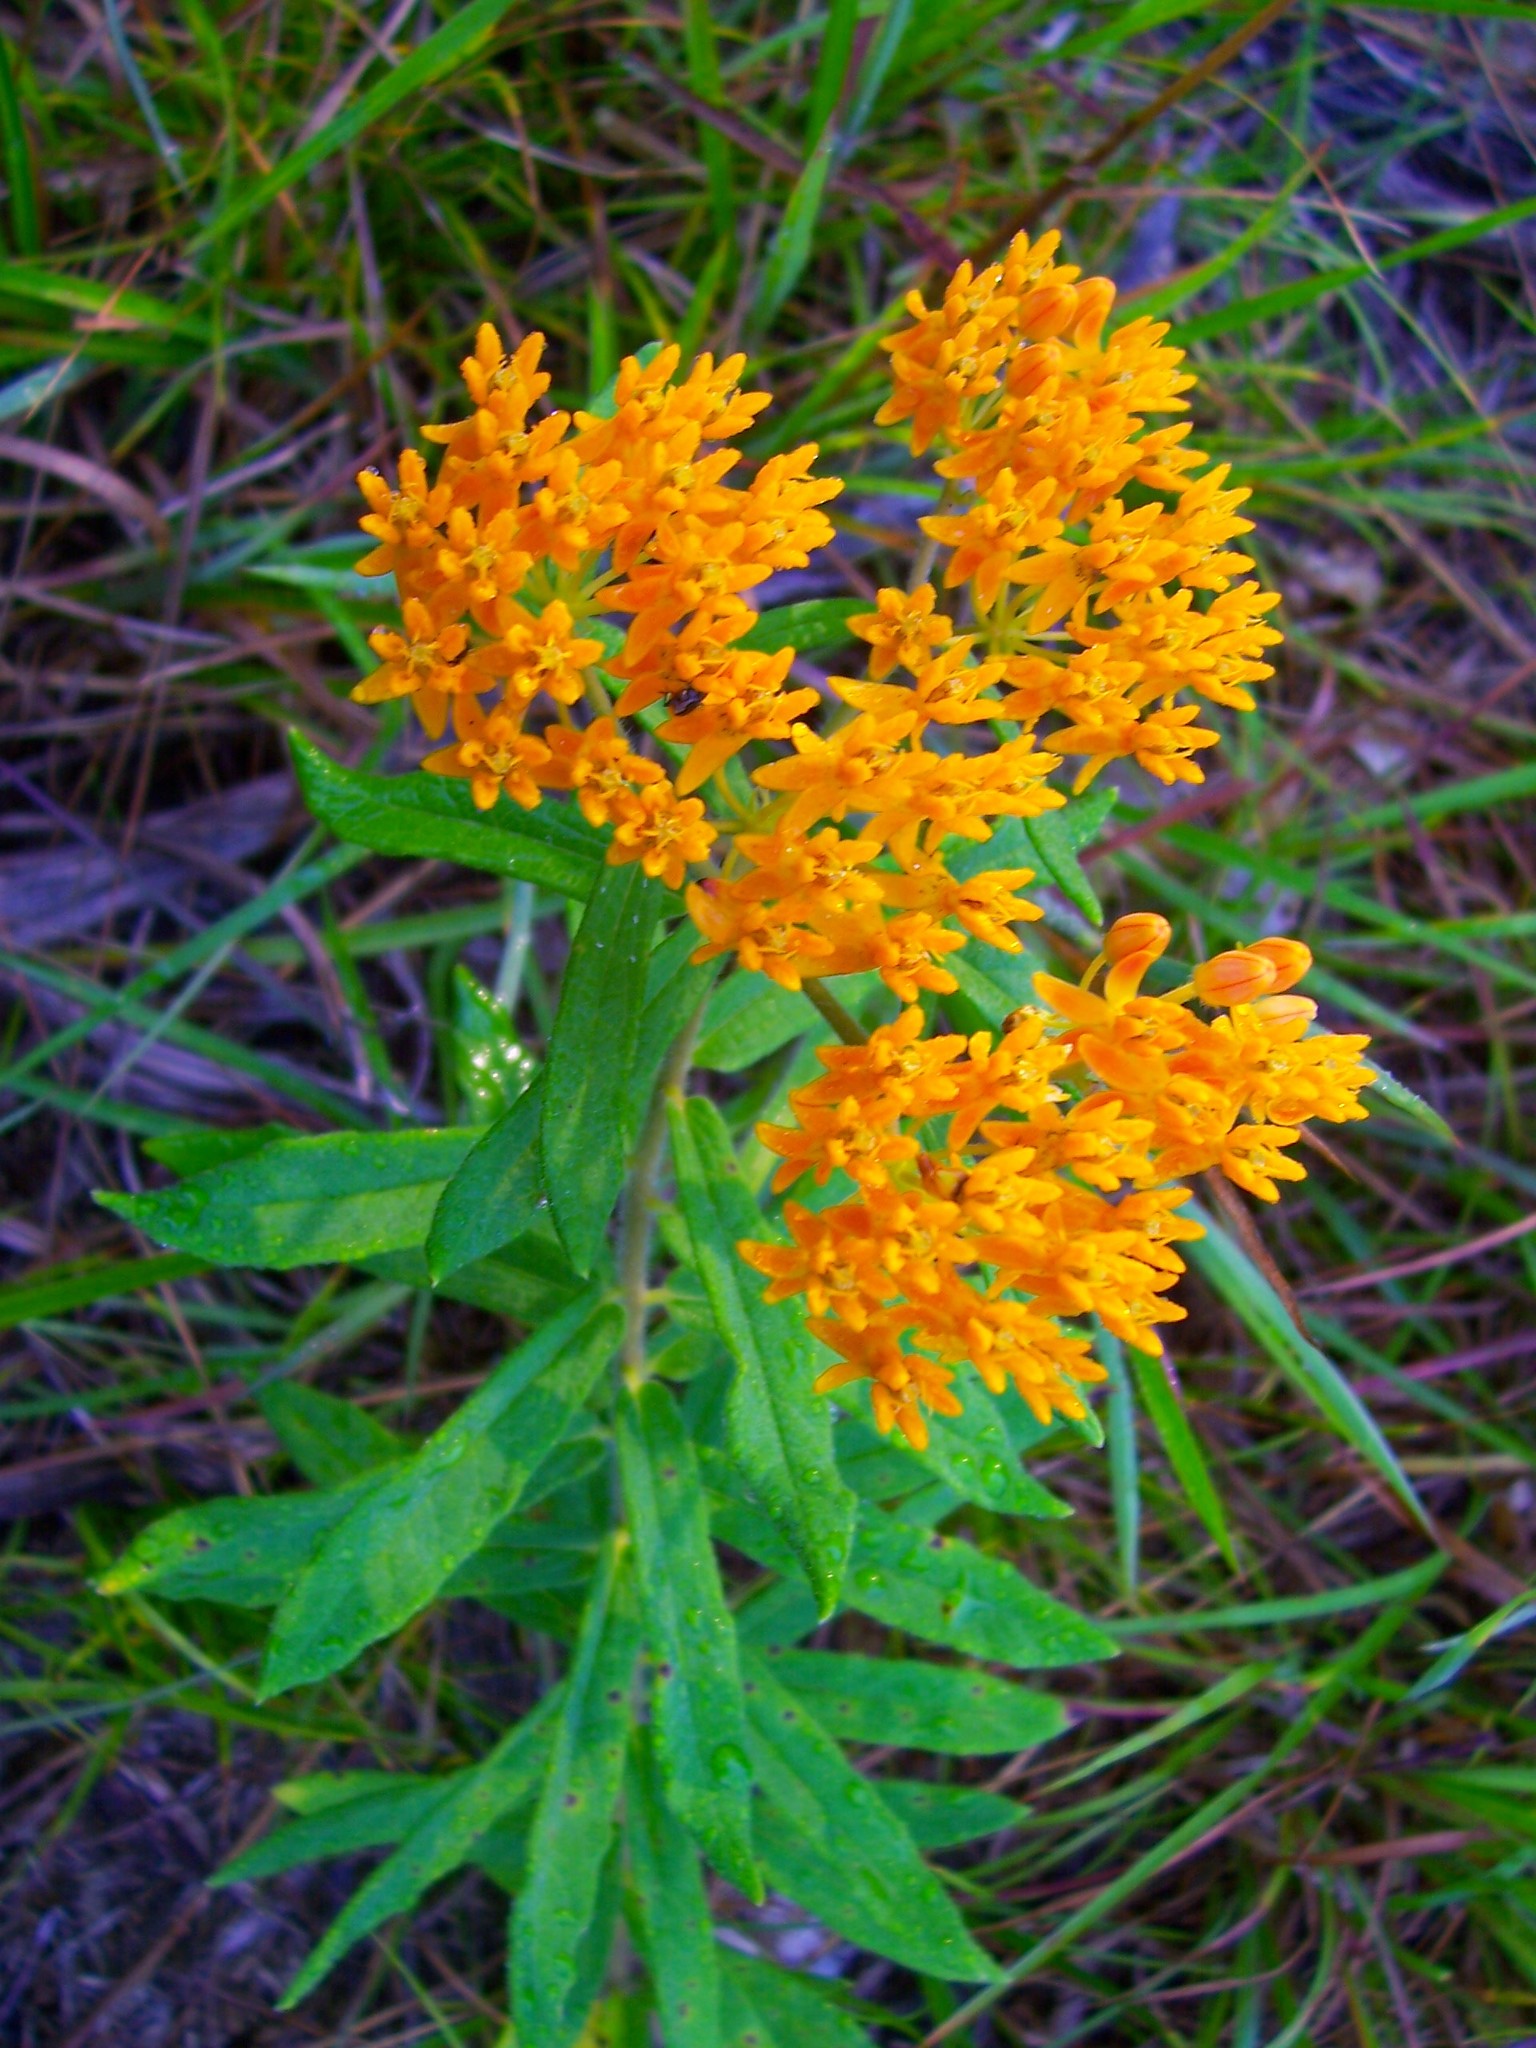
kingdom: Plantae
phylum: Tracheophyta
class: Magnoliopsida
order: Gentianales
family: Apocynaceae
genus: Asclepias
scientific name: Asclepias tuberosa
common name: Butterfly milkweed
